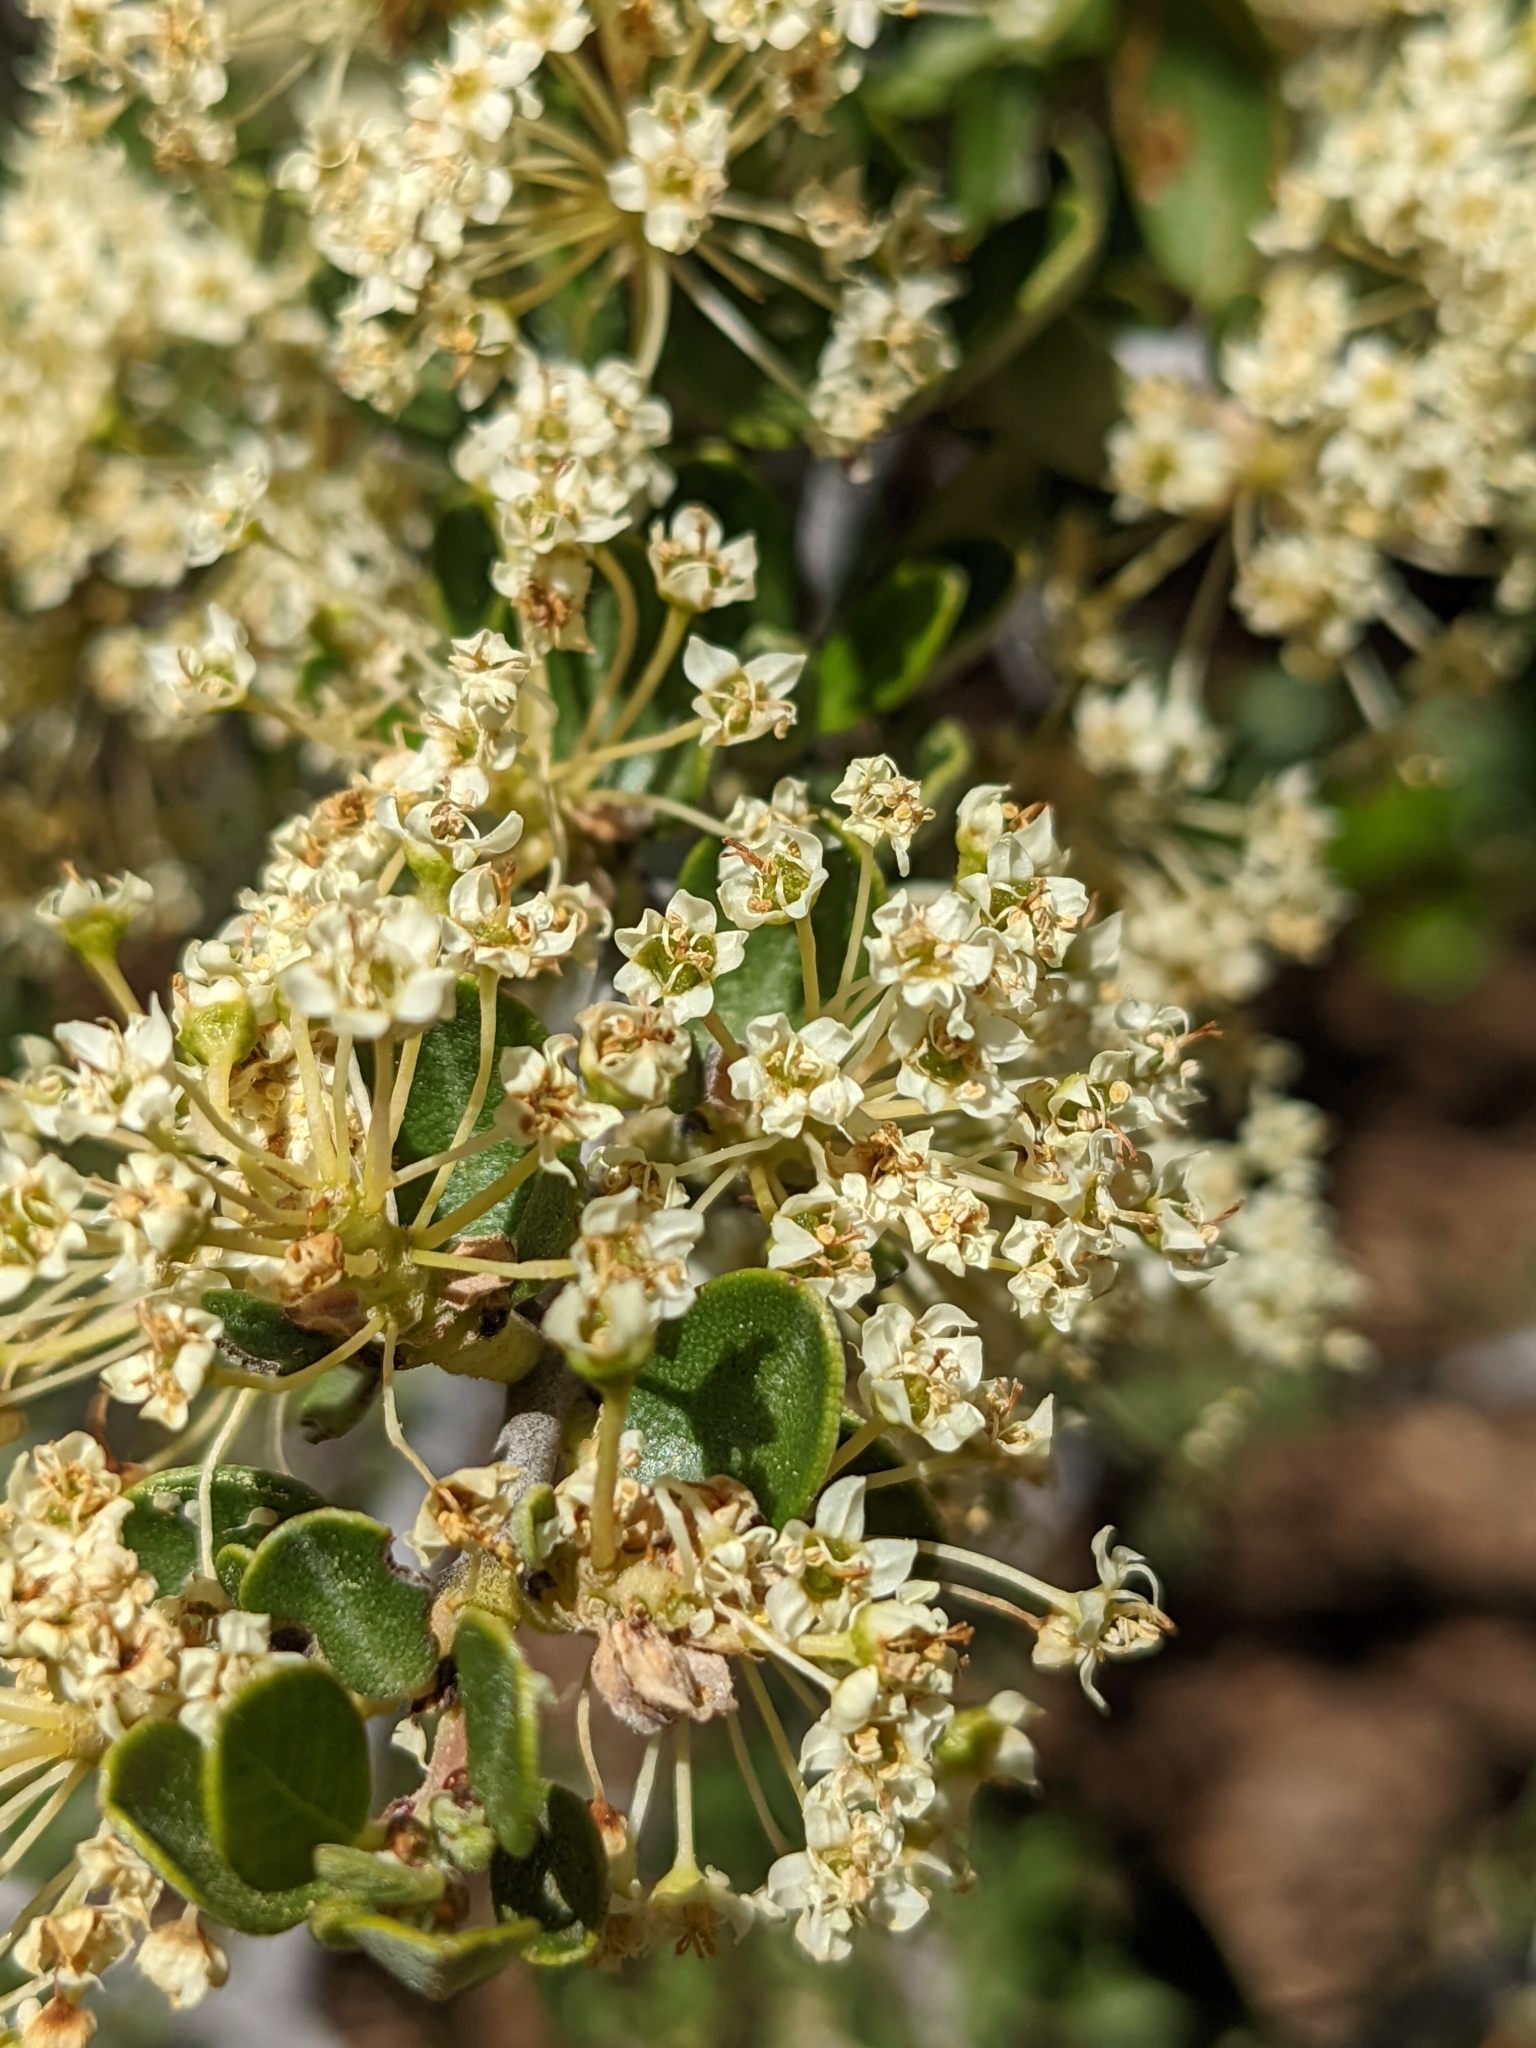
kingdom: Plantae
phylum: Tracheophyta
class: Magnoliopsida
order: Rosales
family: Rhamnaceae
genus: Ceanothus
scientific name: Ceanothus cuneatus
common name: Cuneate ceanothus
